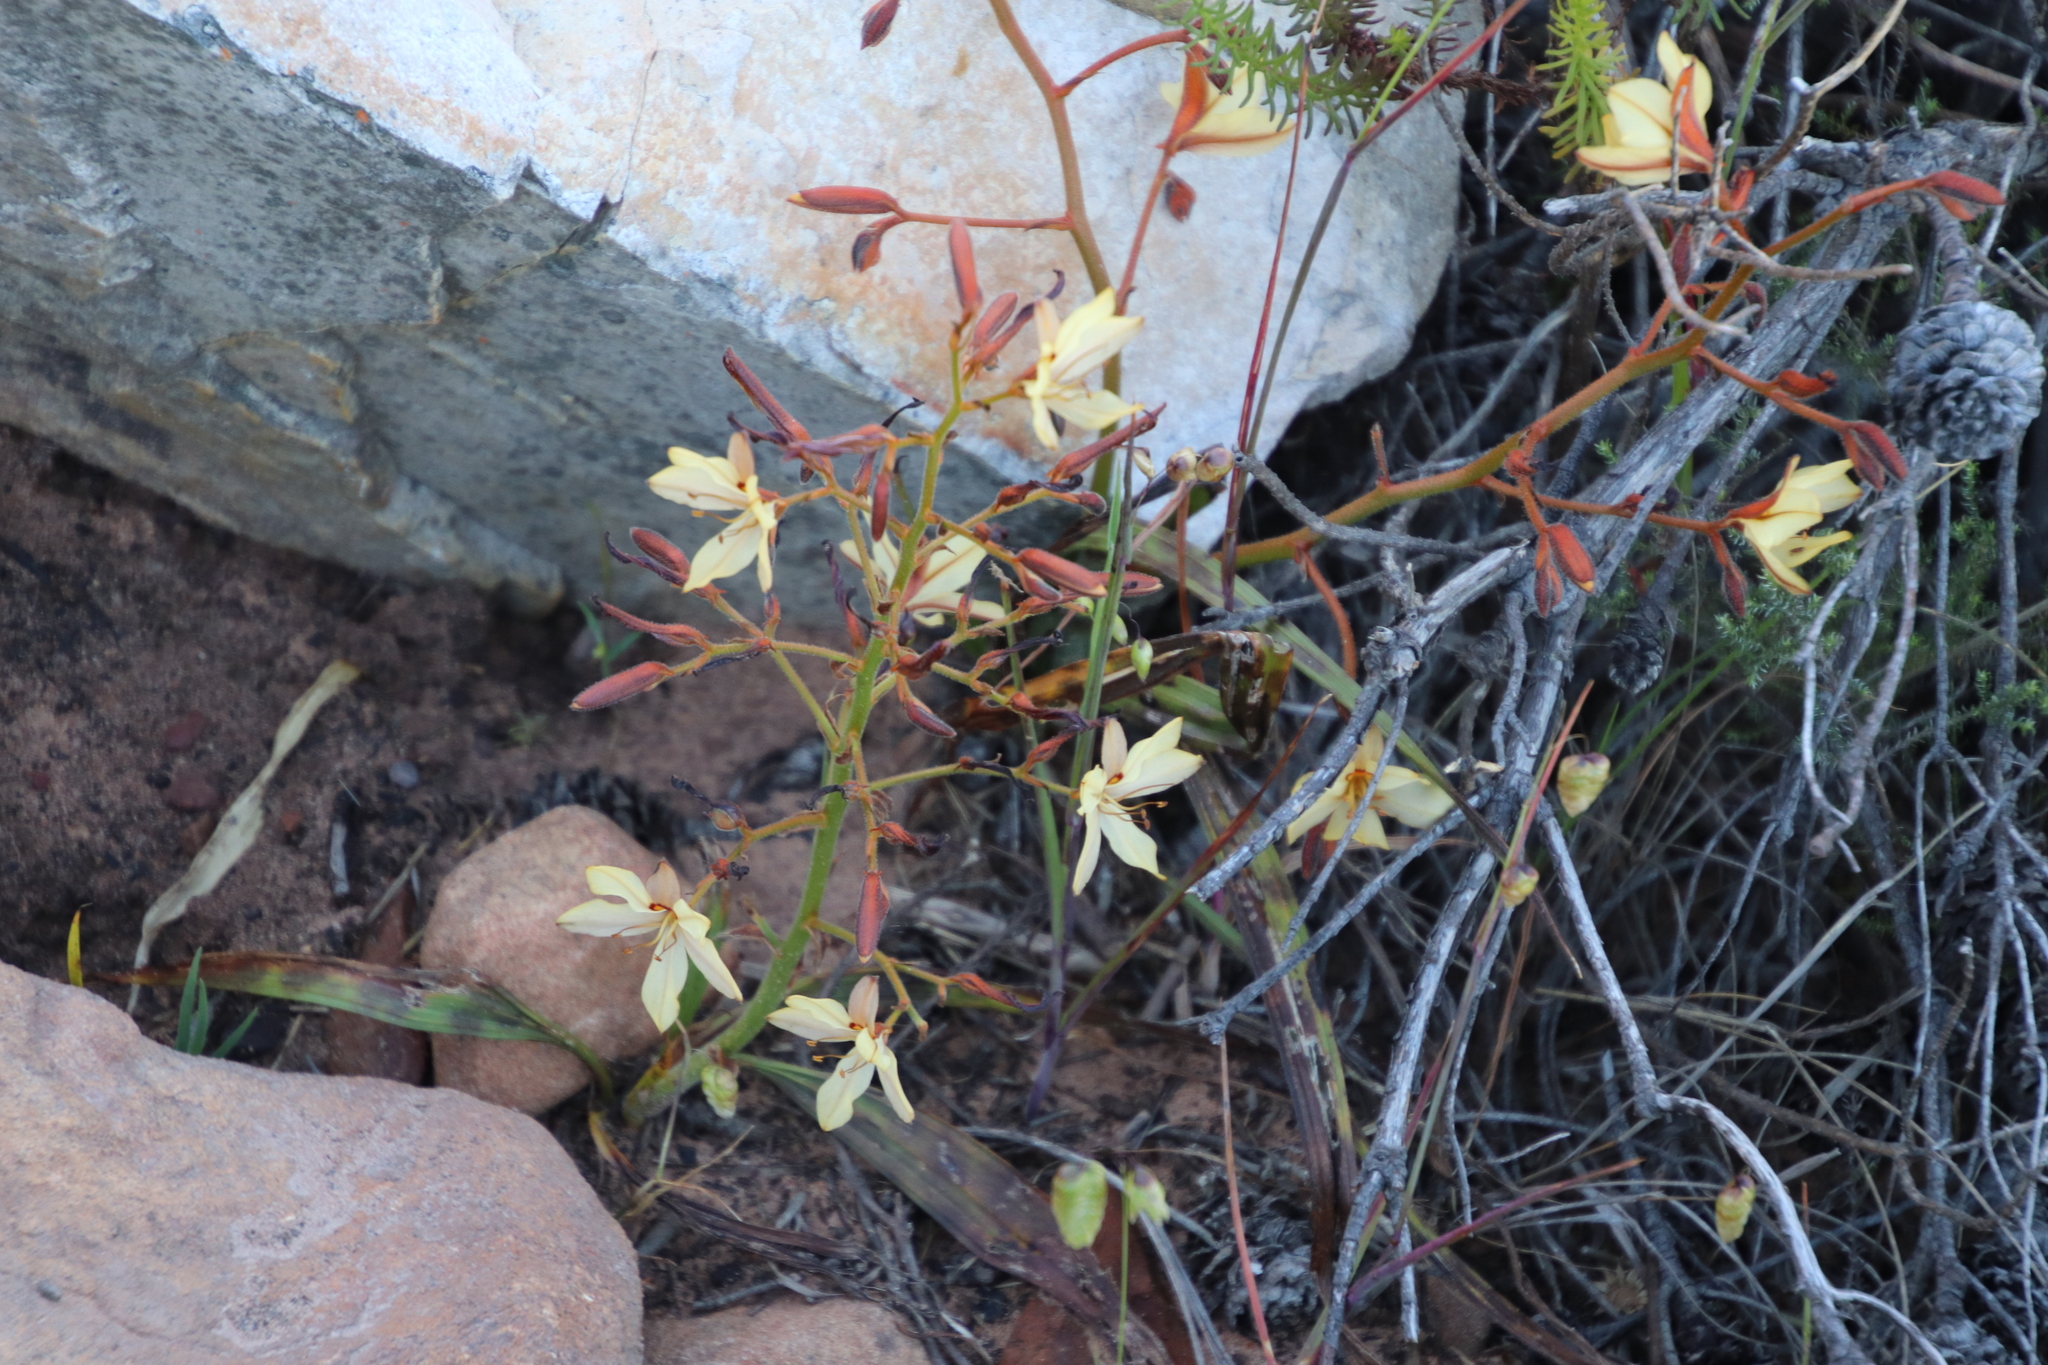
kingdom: Plantae
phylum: Tracheophyta
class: Liliopsida
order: Commelinales
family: Haemodoraceae
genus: Wachendorfia
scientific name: Wachendorfia paniculata
